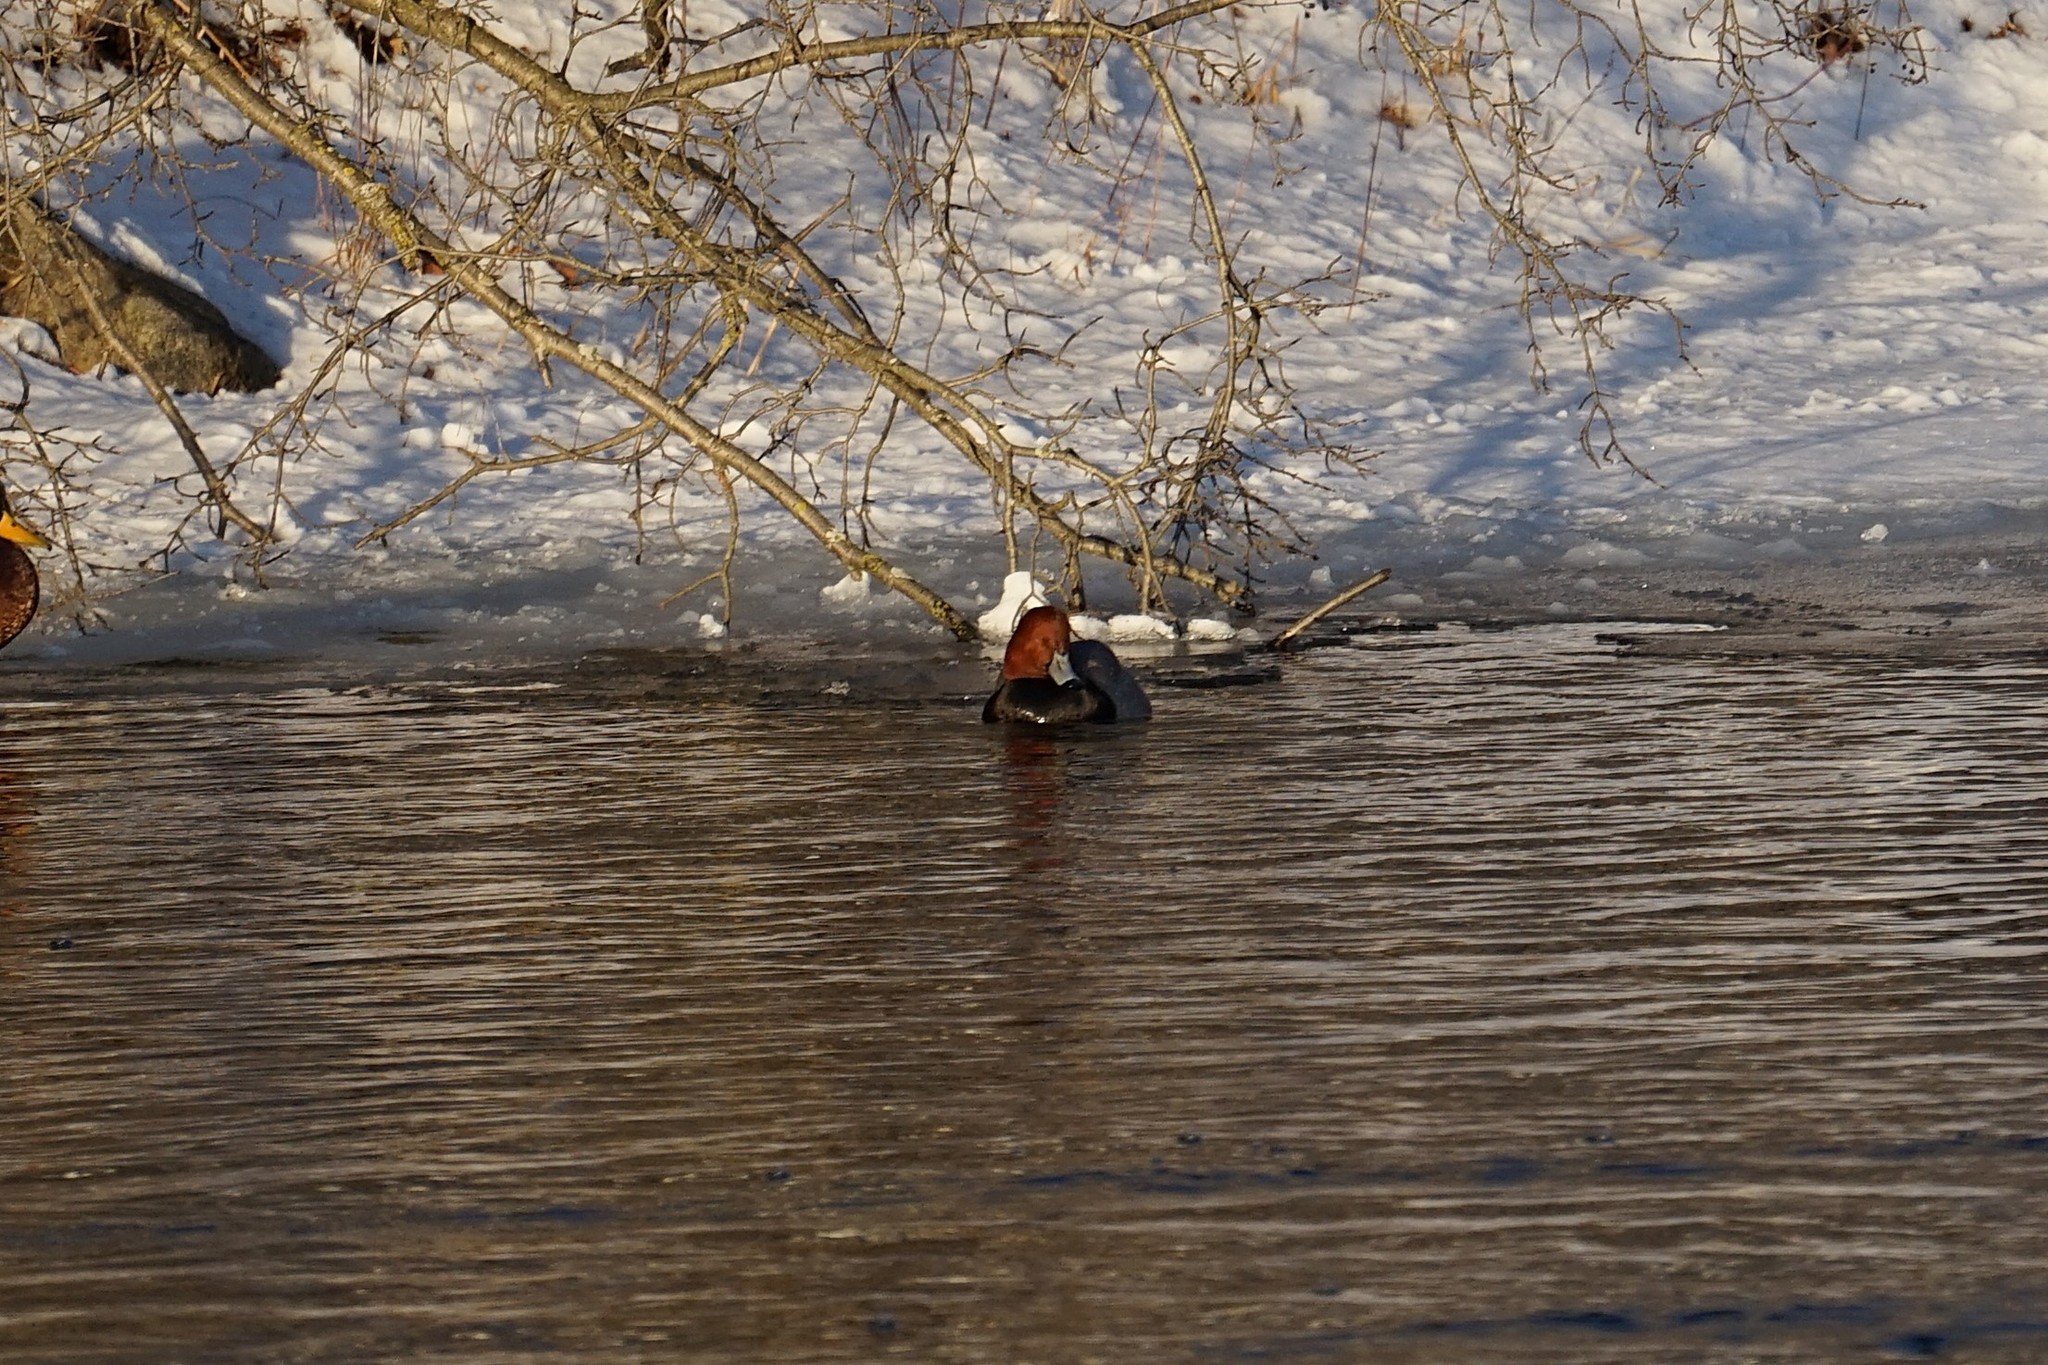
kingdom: Animalia
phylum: Chordata
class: Aves
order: Anseriformes
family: Anatidae
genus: Aythya
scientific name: Aythya americana
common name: Redhead
